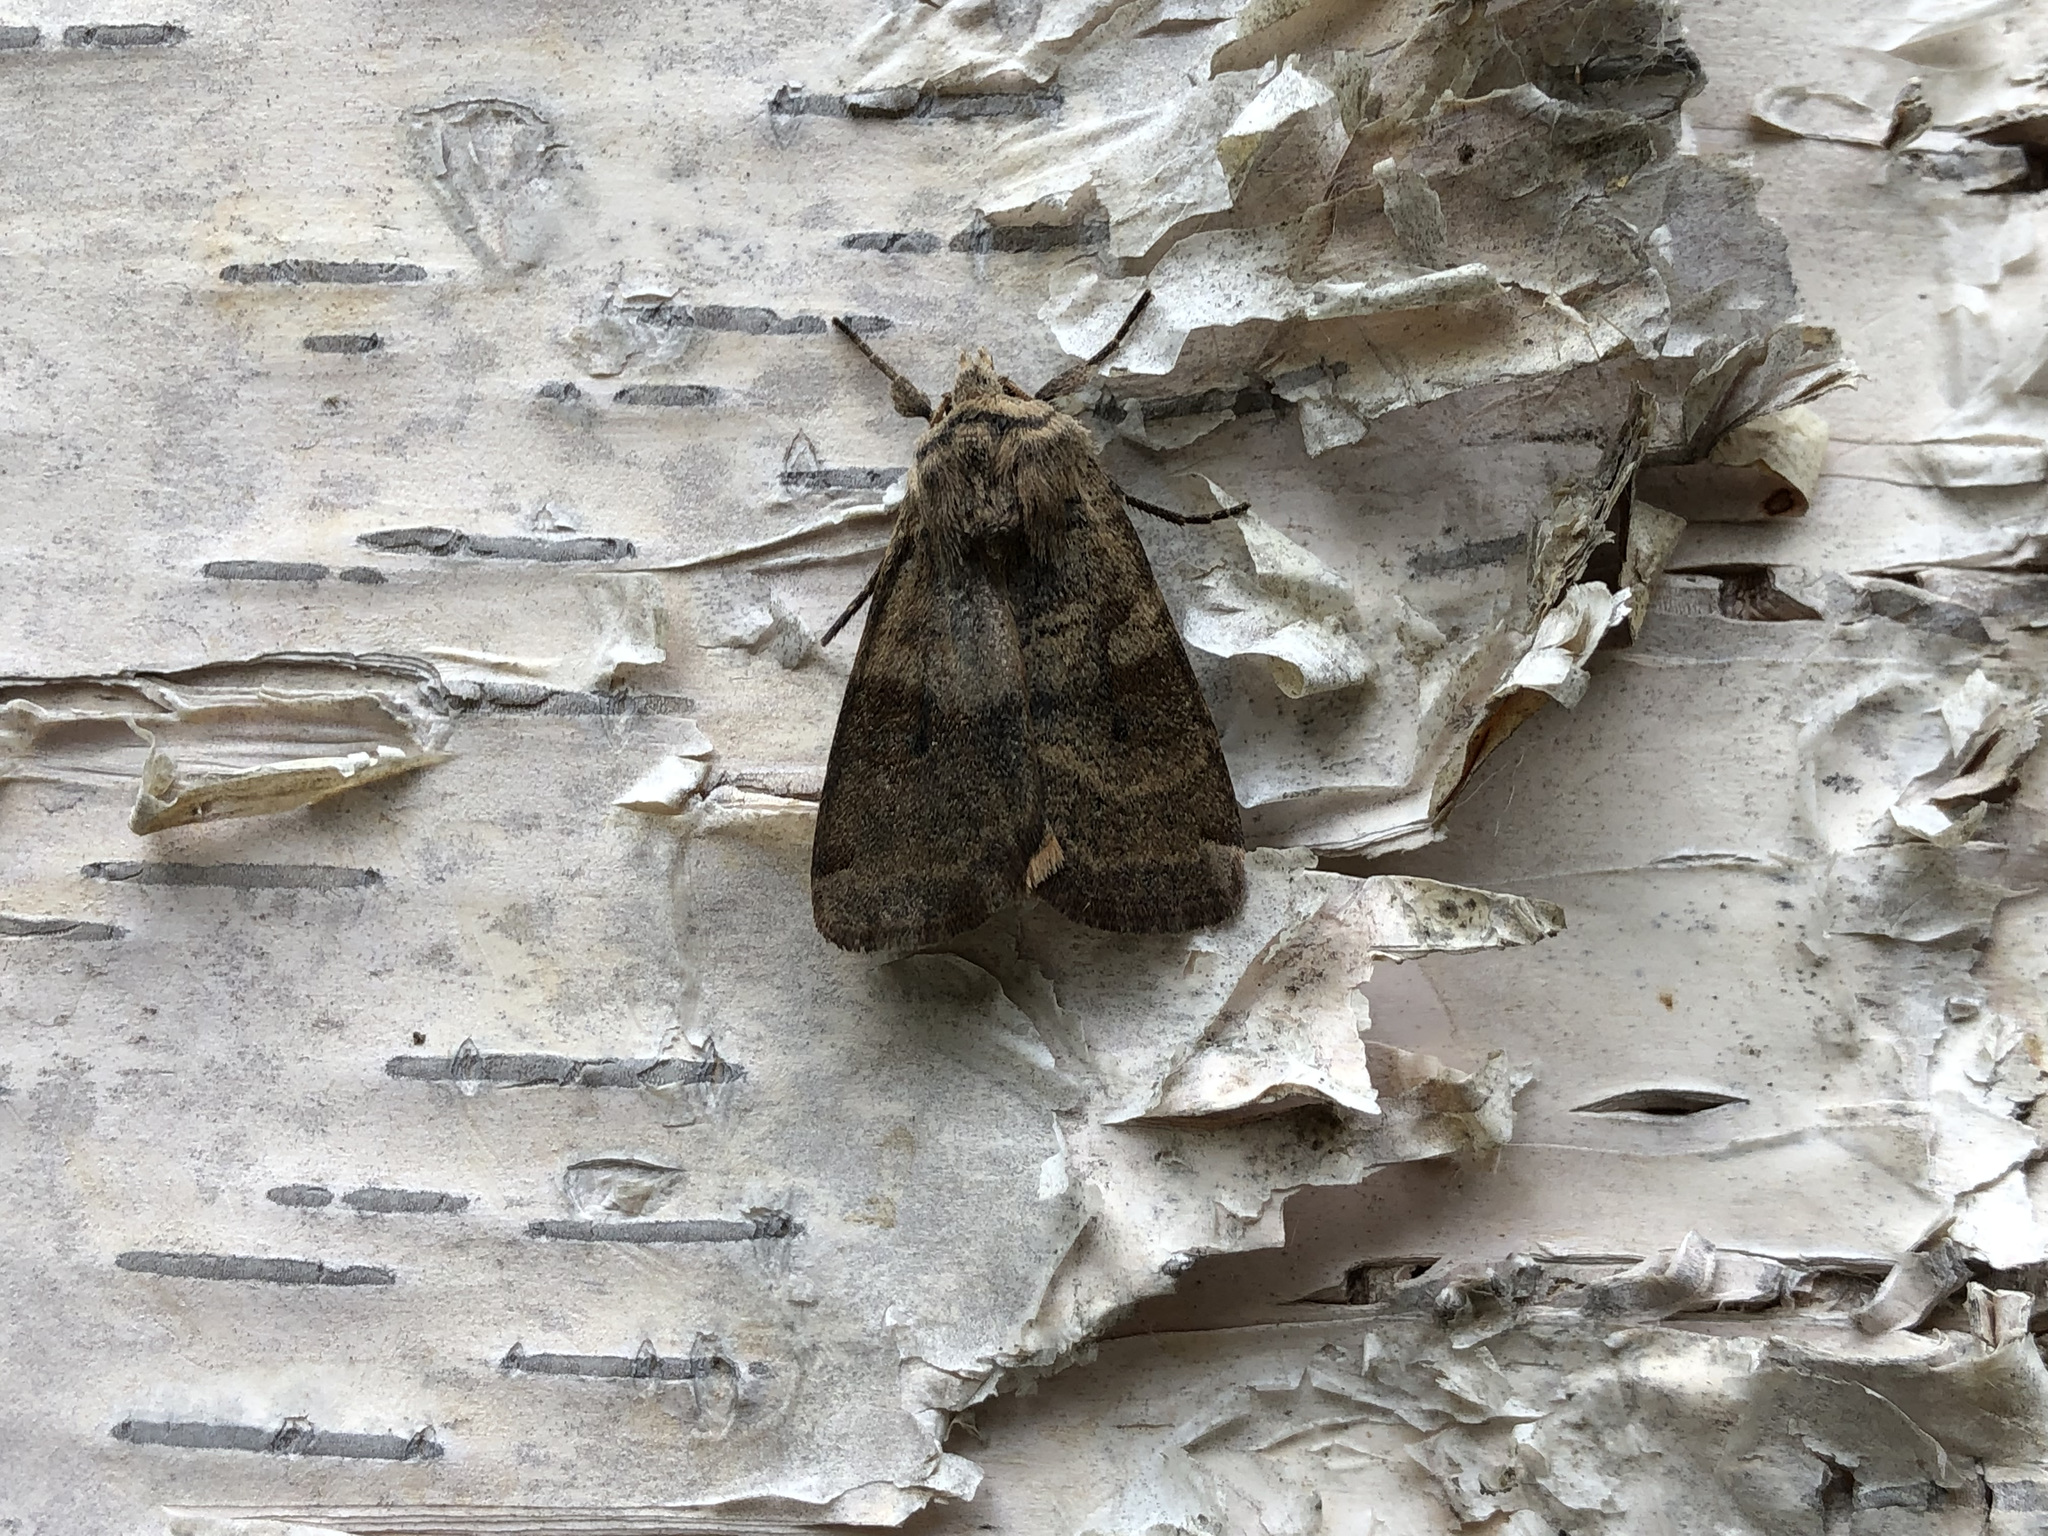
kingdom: Animalia
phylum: Arthropoda
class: Insecta
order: Lepidoptera
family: Noctuidae
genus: Xestia
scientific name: Xestia smithii
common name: Smith's dart
